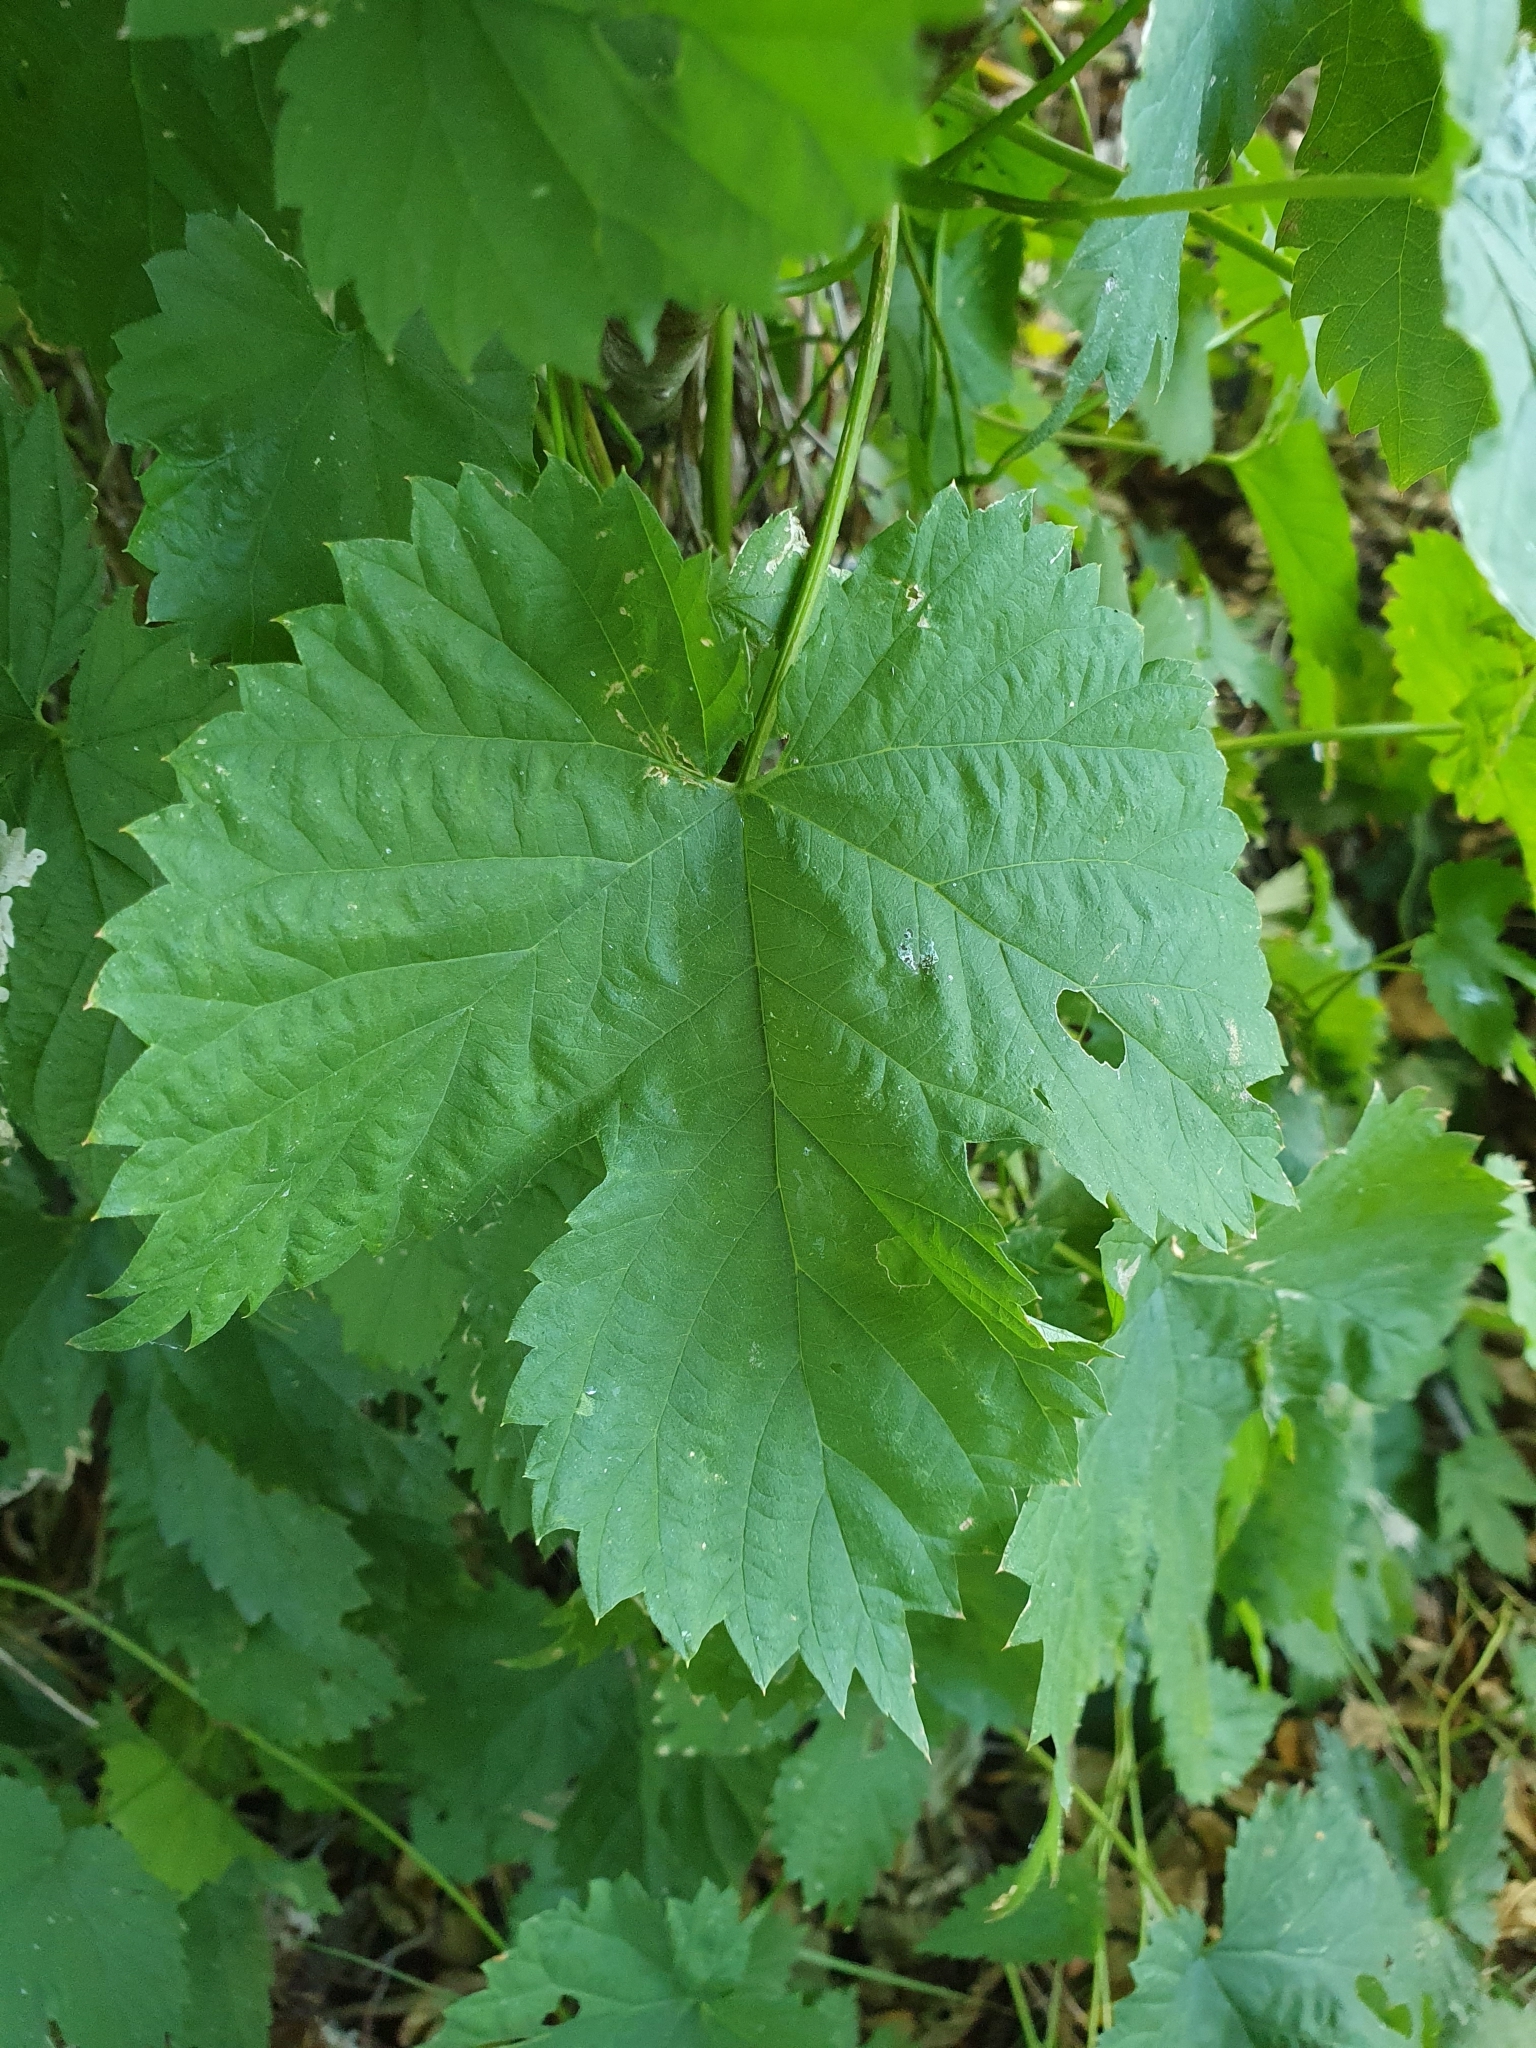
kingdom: Plantae
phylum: Tracheophyta
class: Magnoliopsida
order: Rosales
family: Cannabaceae
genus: Humulus
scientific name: Humulus lupulus
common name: Hop
